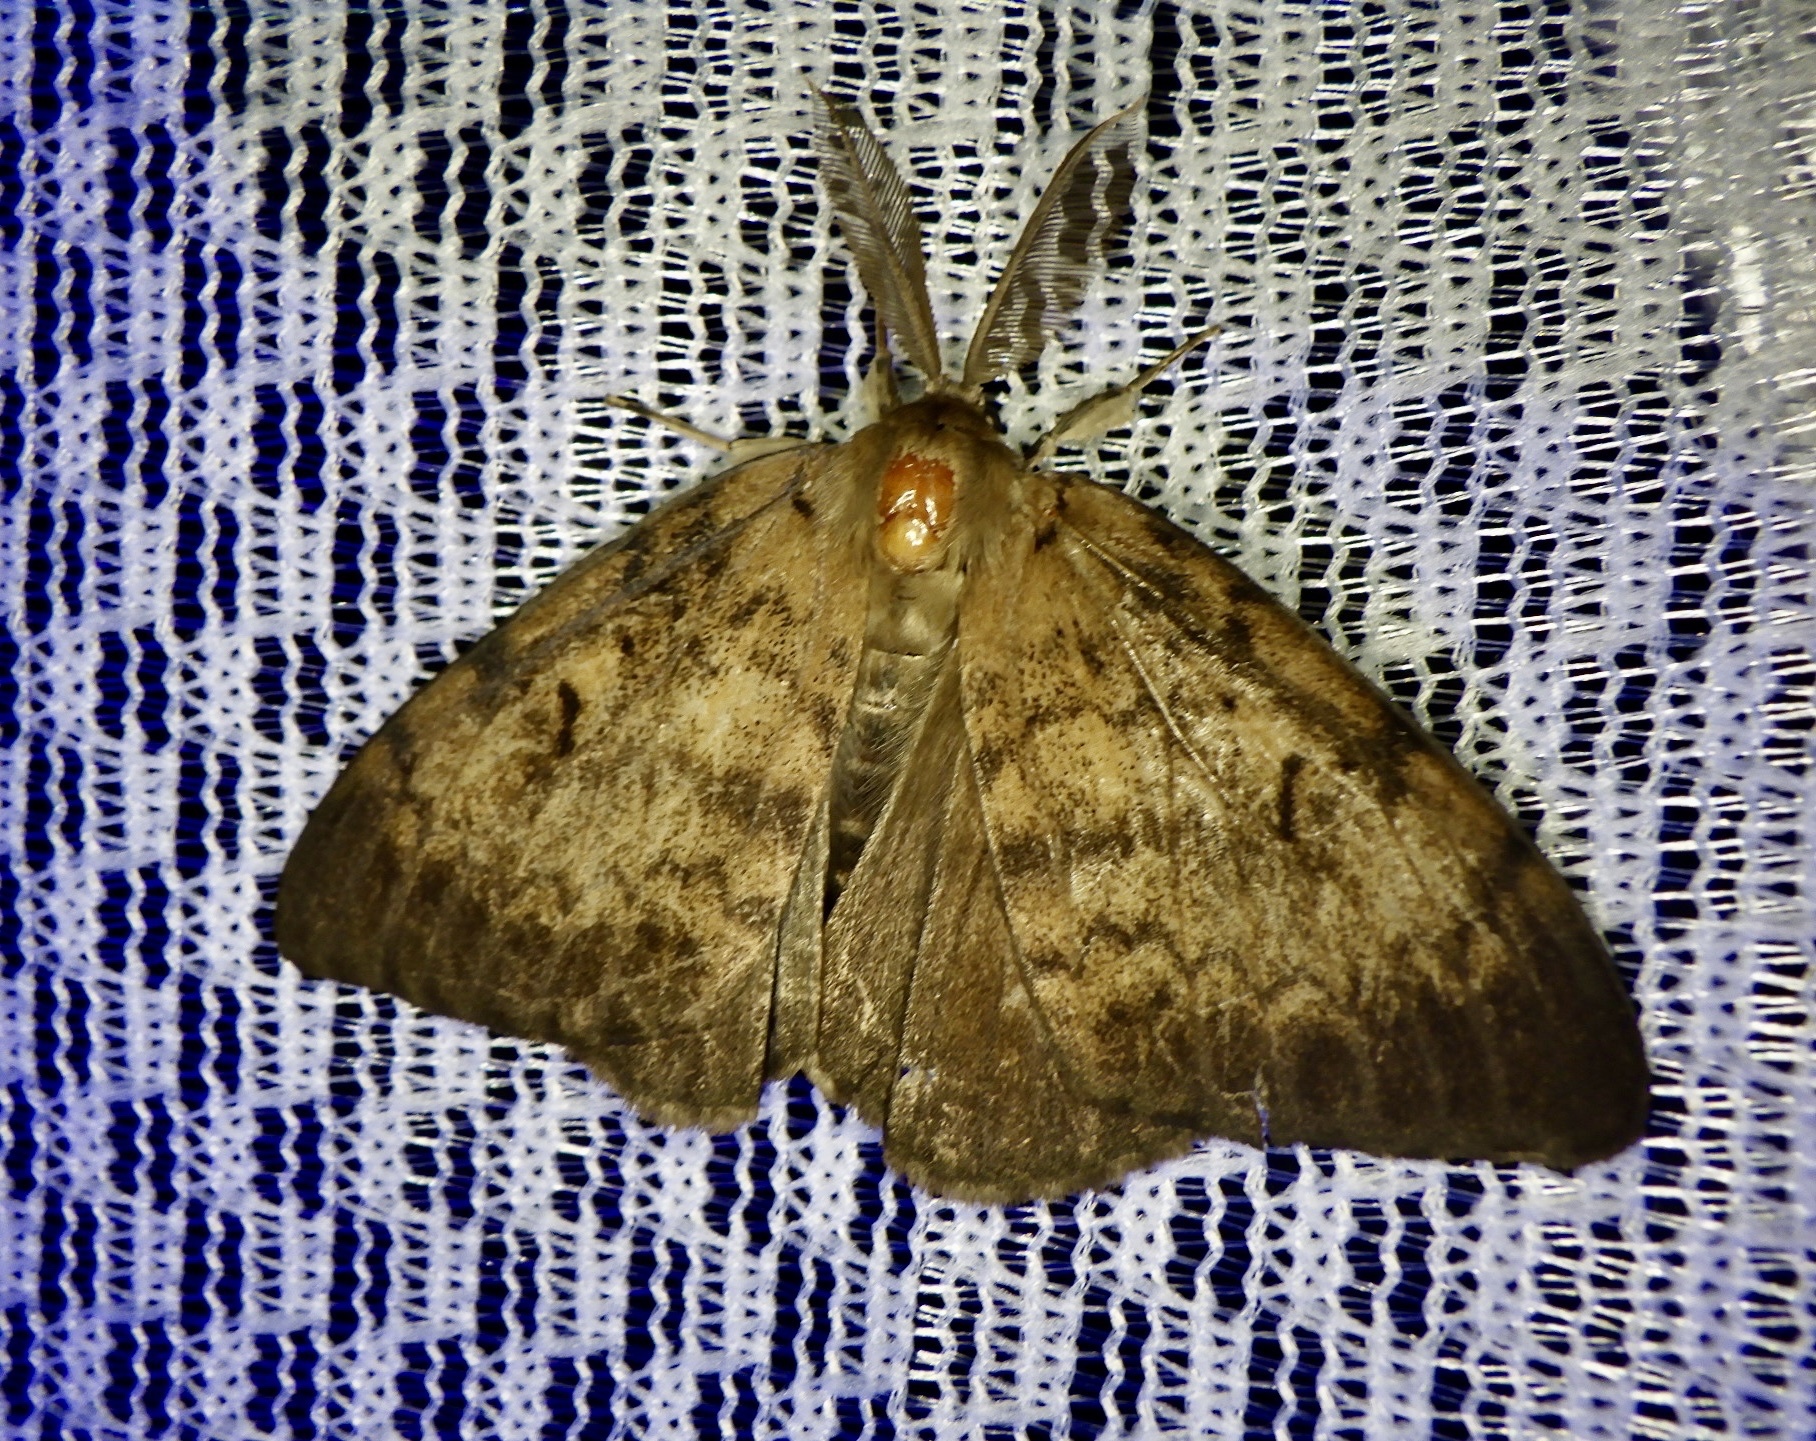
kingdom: Animalia
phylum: Arthropoda
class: Insecta
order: Lepidoptera
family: Erebidae
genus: Lymantria
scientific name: Lymantria dispar
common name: Gypsy moth
